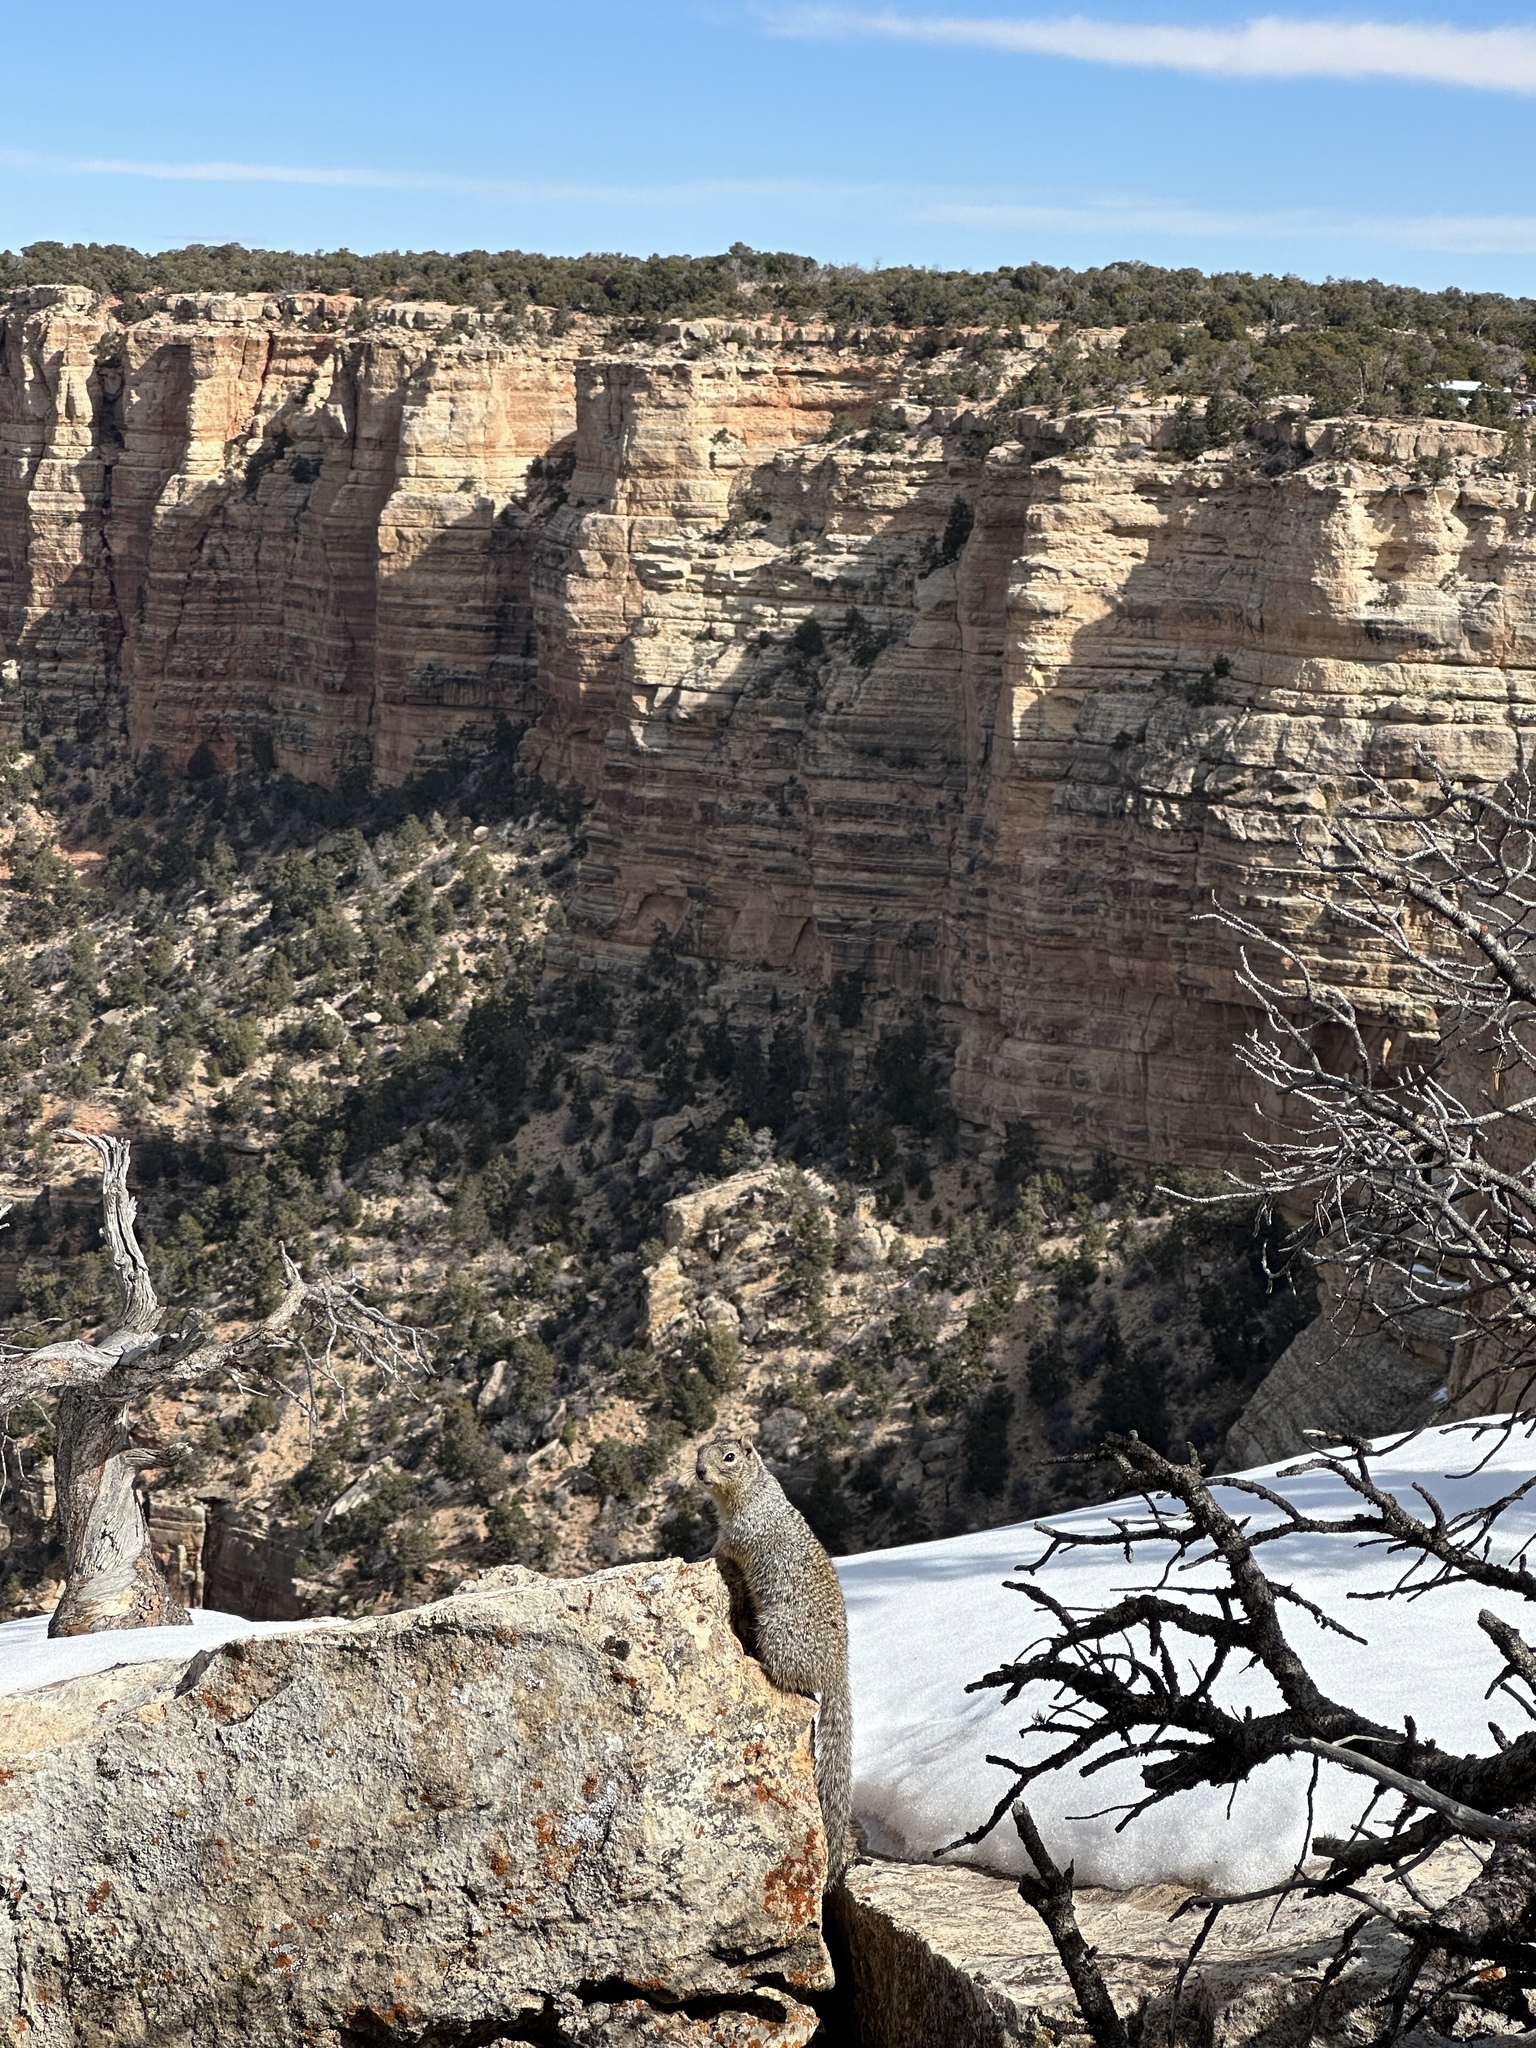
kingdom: Animalia
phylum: Chordata
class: Mammalia
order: Rodentia
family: Sciuridae
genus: Otospermophilus
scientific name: Otospermophilus variegatus
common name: Rock squirrel
